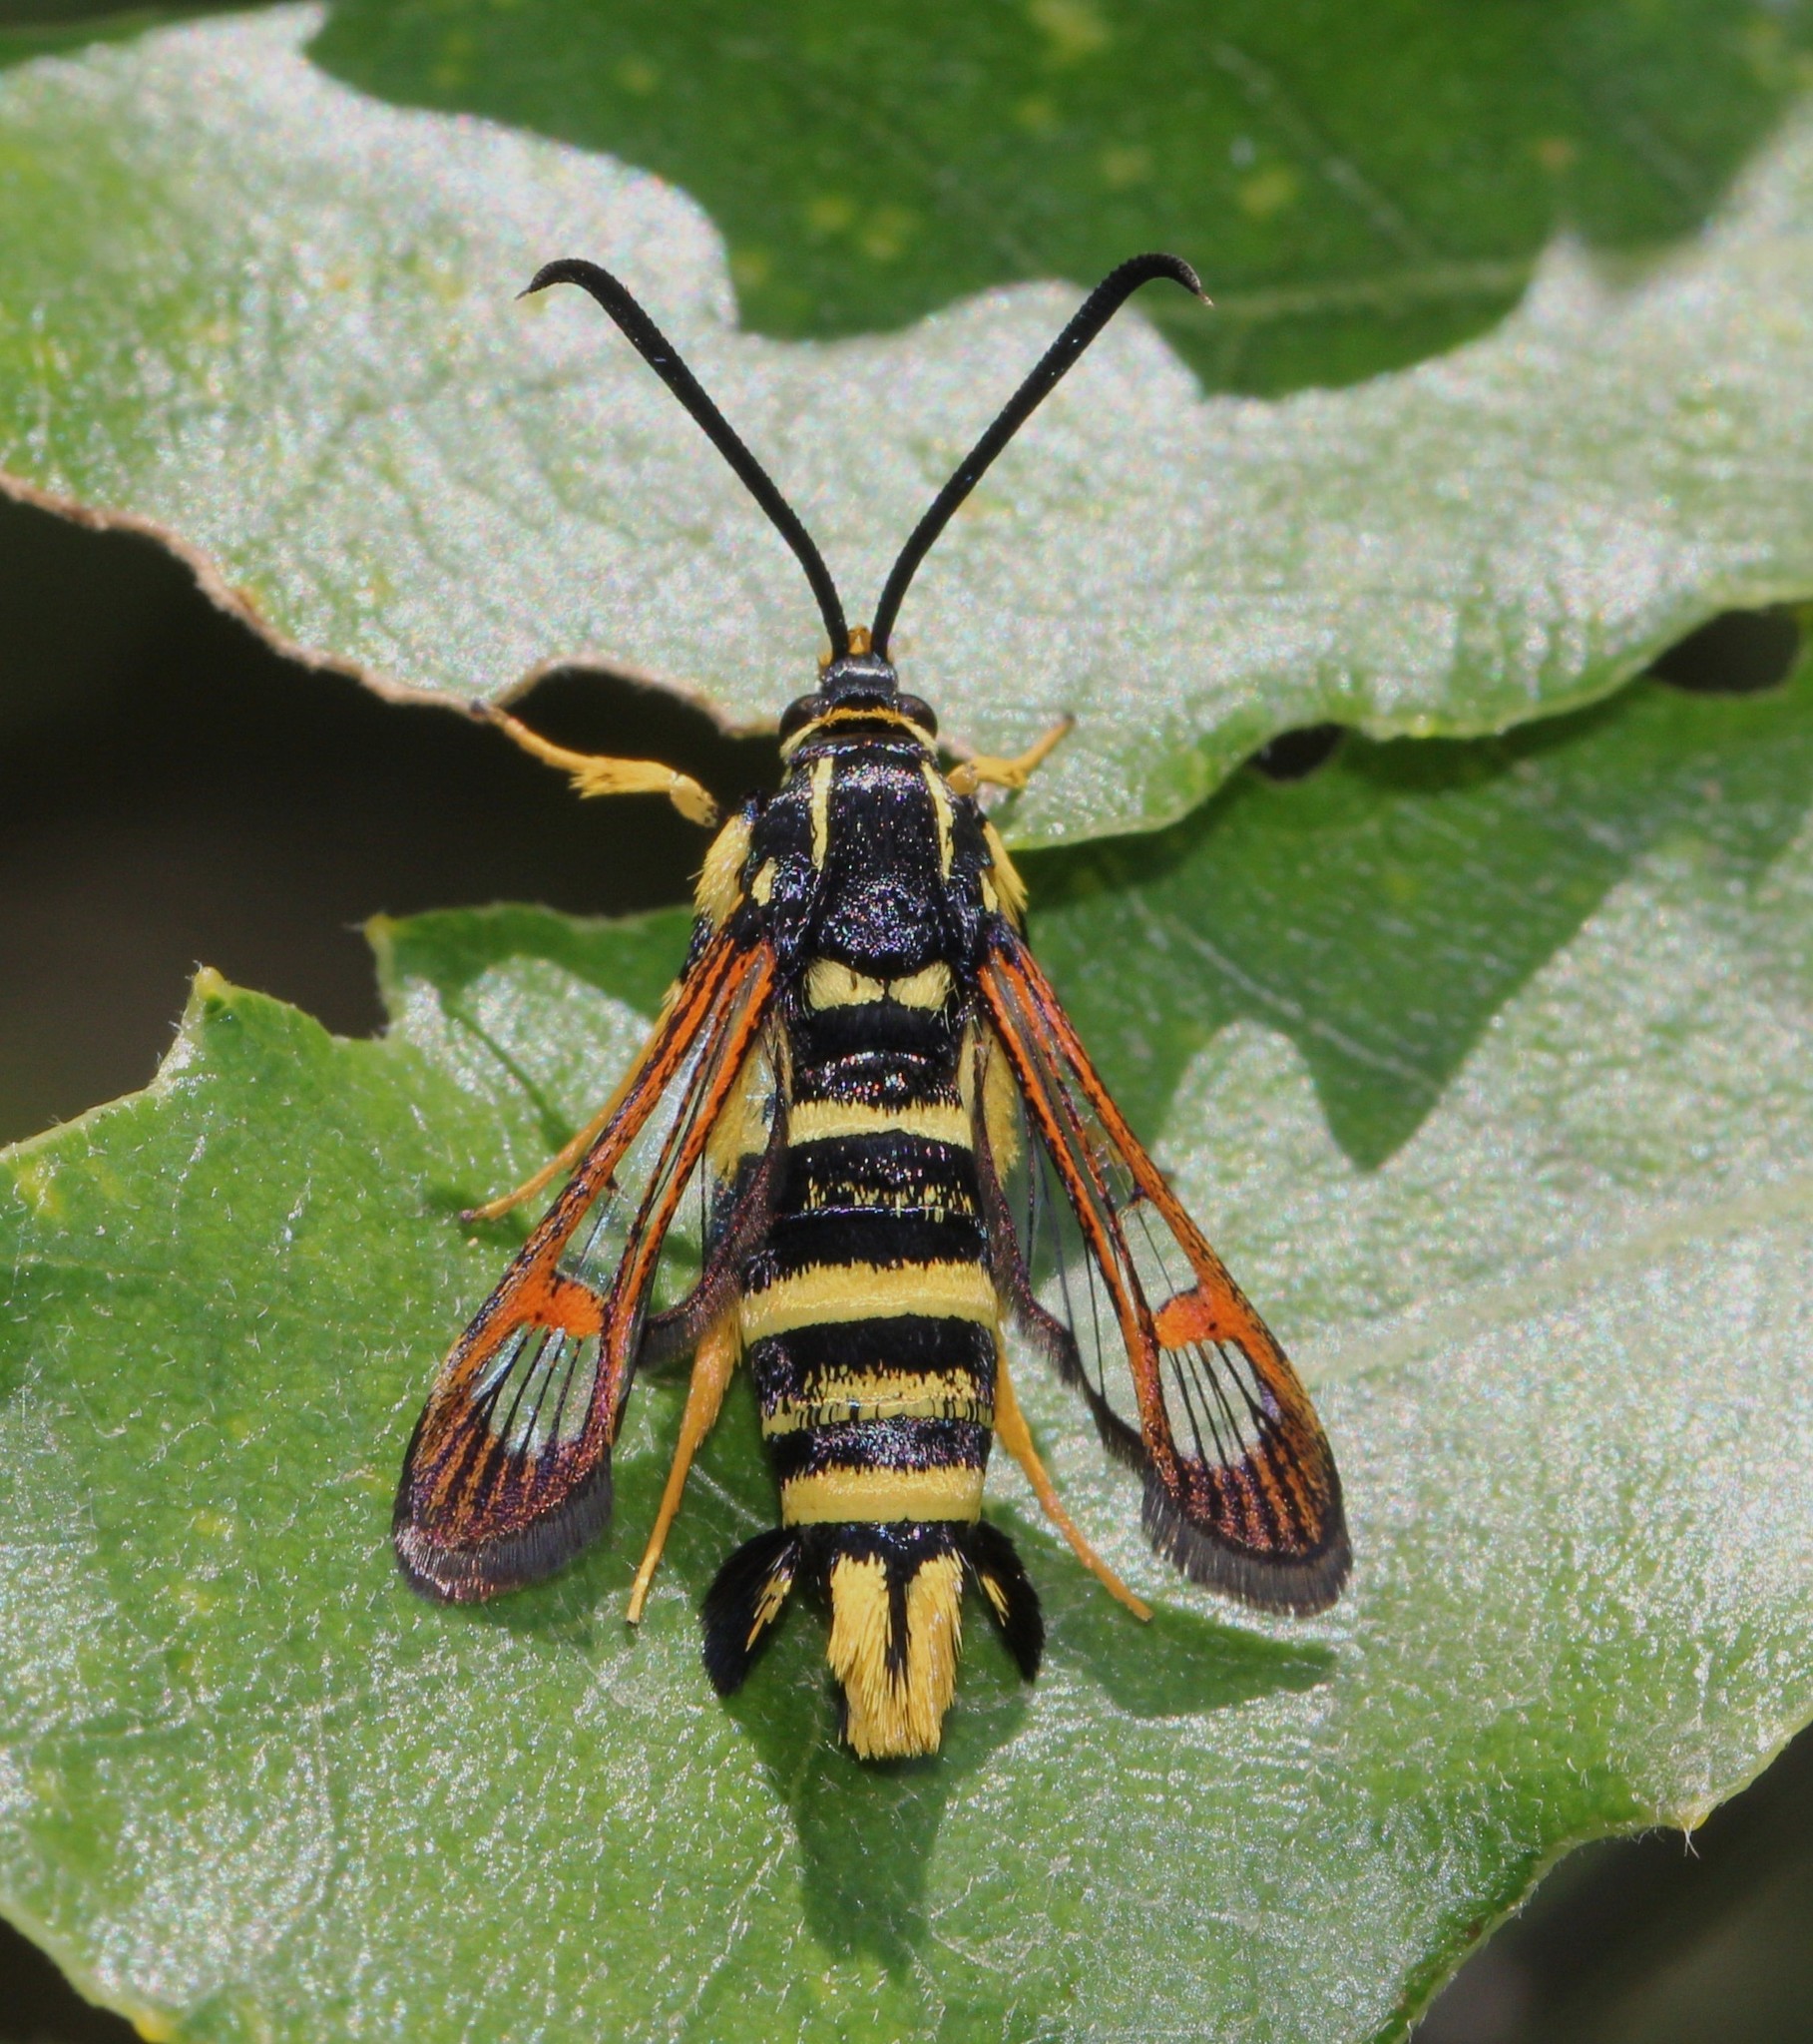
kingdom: Animalia
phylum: Arthropoda
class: Insecta
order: Lepidoptera
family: Sesiidae
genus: Synanthedon
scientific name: Synanthedon vespiformis
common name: Yellow-legged clearwing
